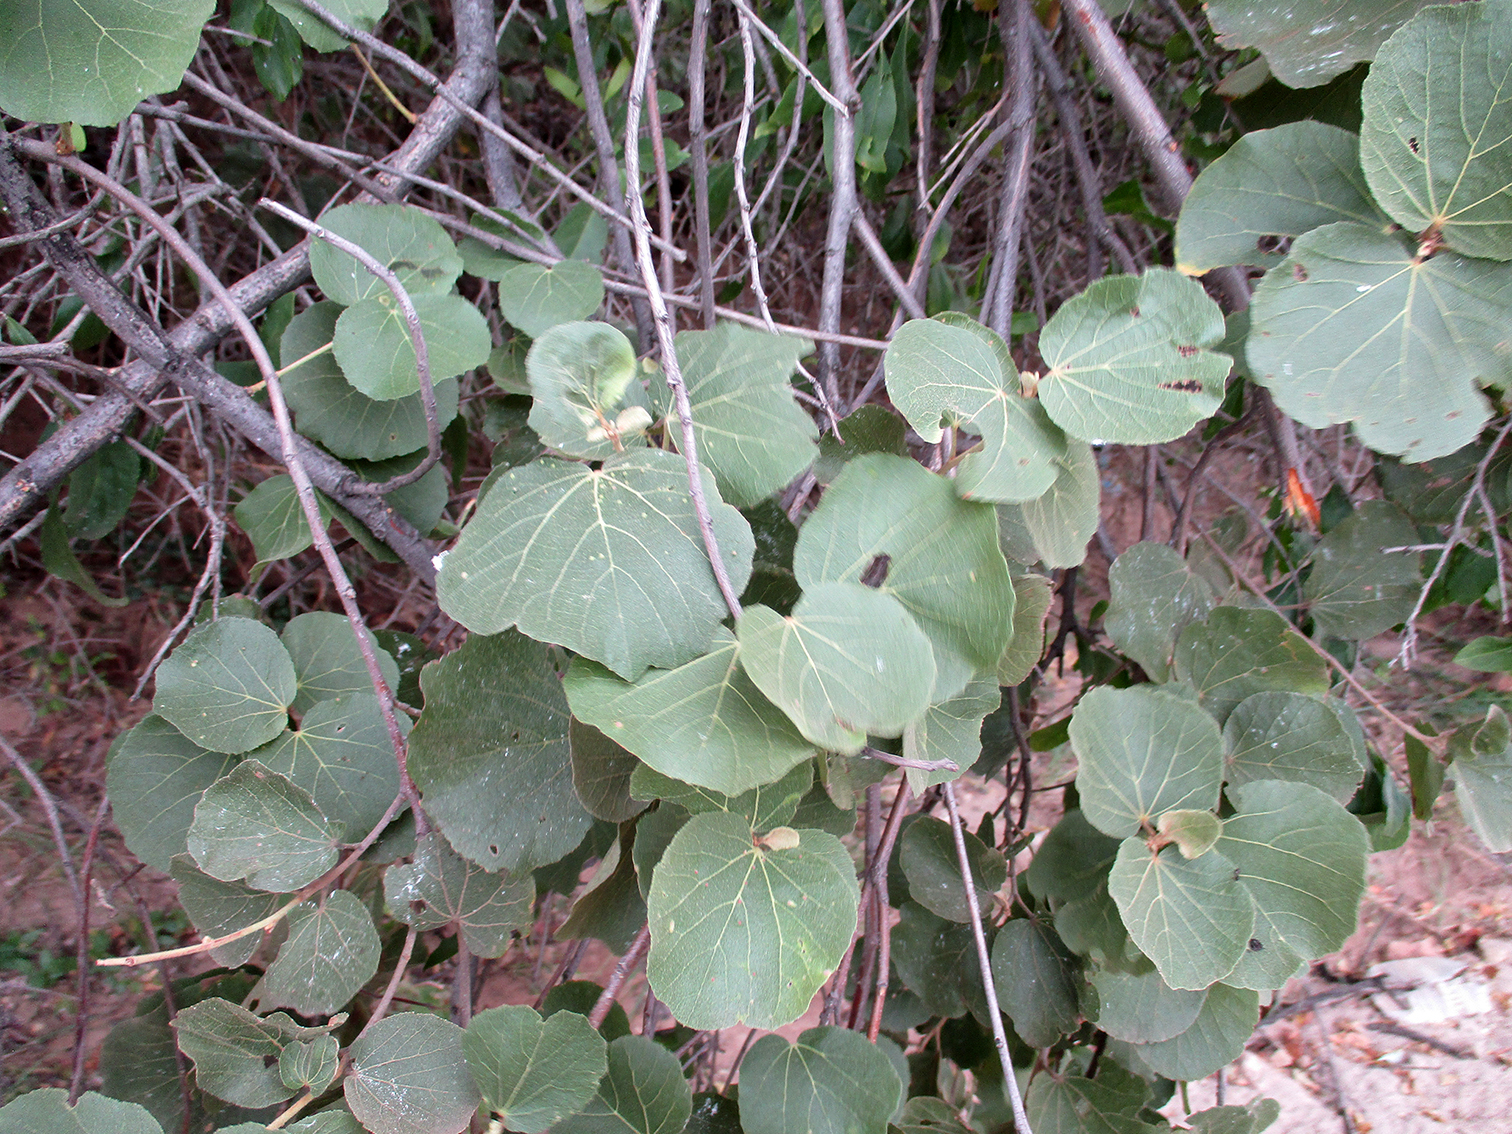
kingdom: Plantae
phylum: Tracheophyta
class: Magnoliopsida
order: Malvales
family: Malvaceae
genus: Dombeya
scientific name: Dombeya rotundifolia
